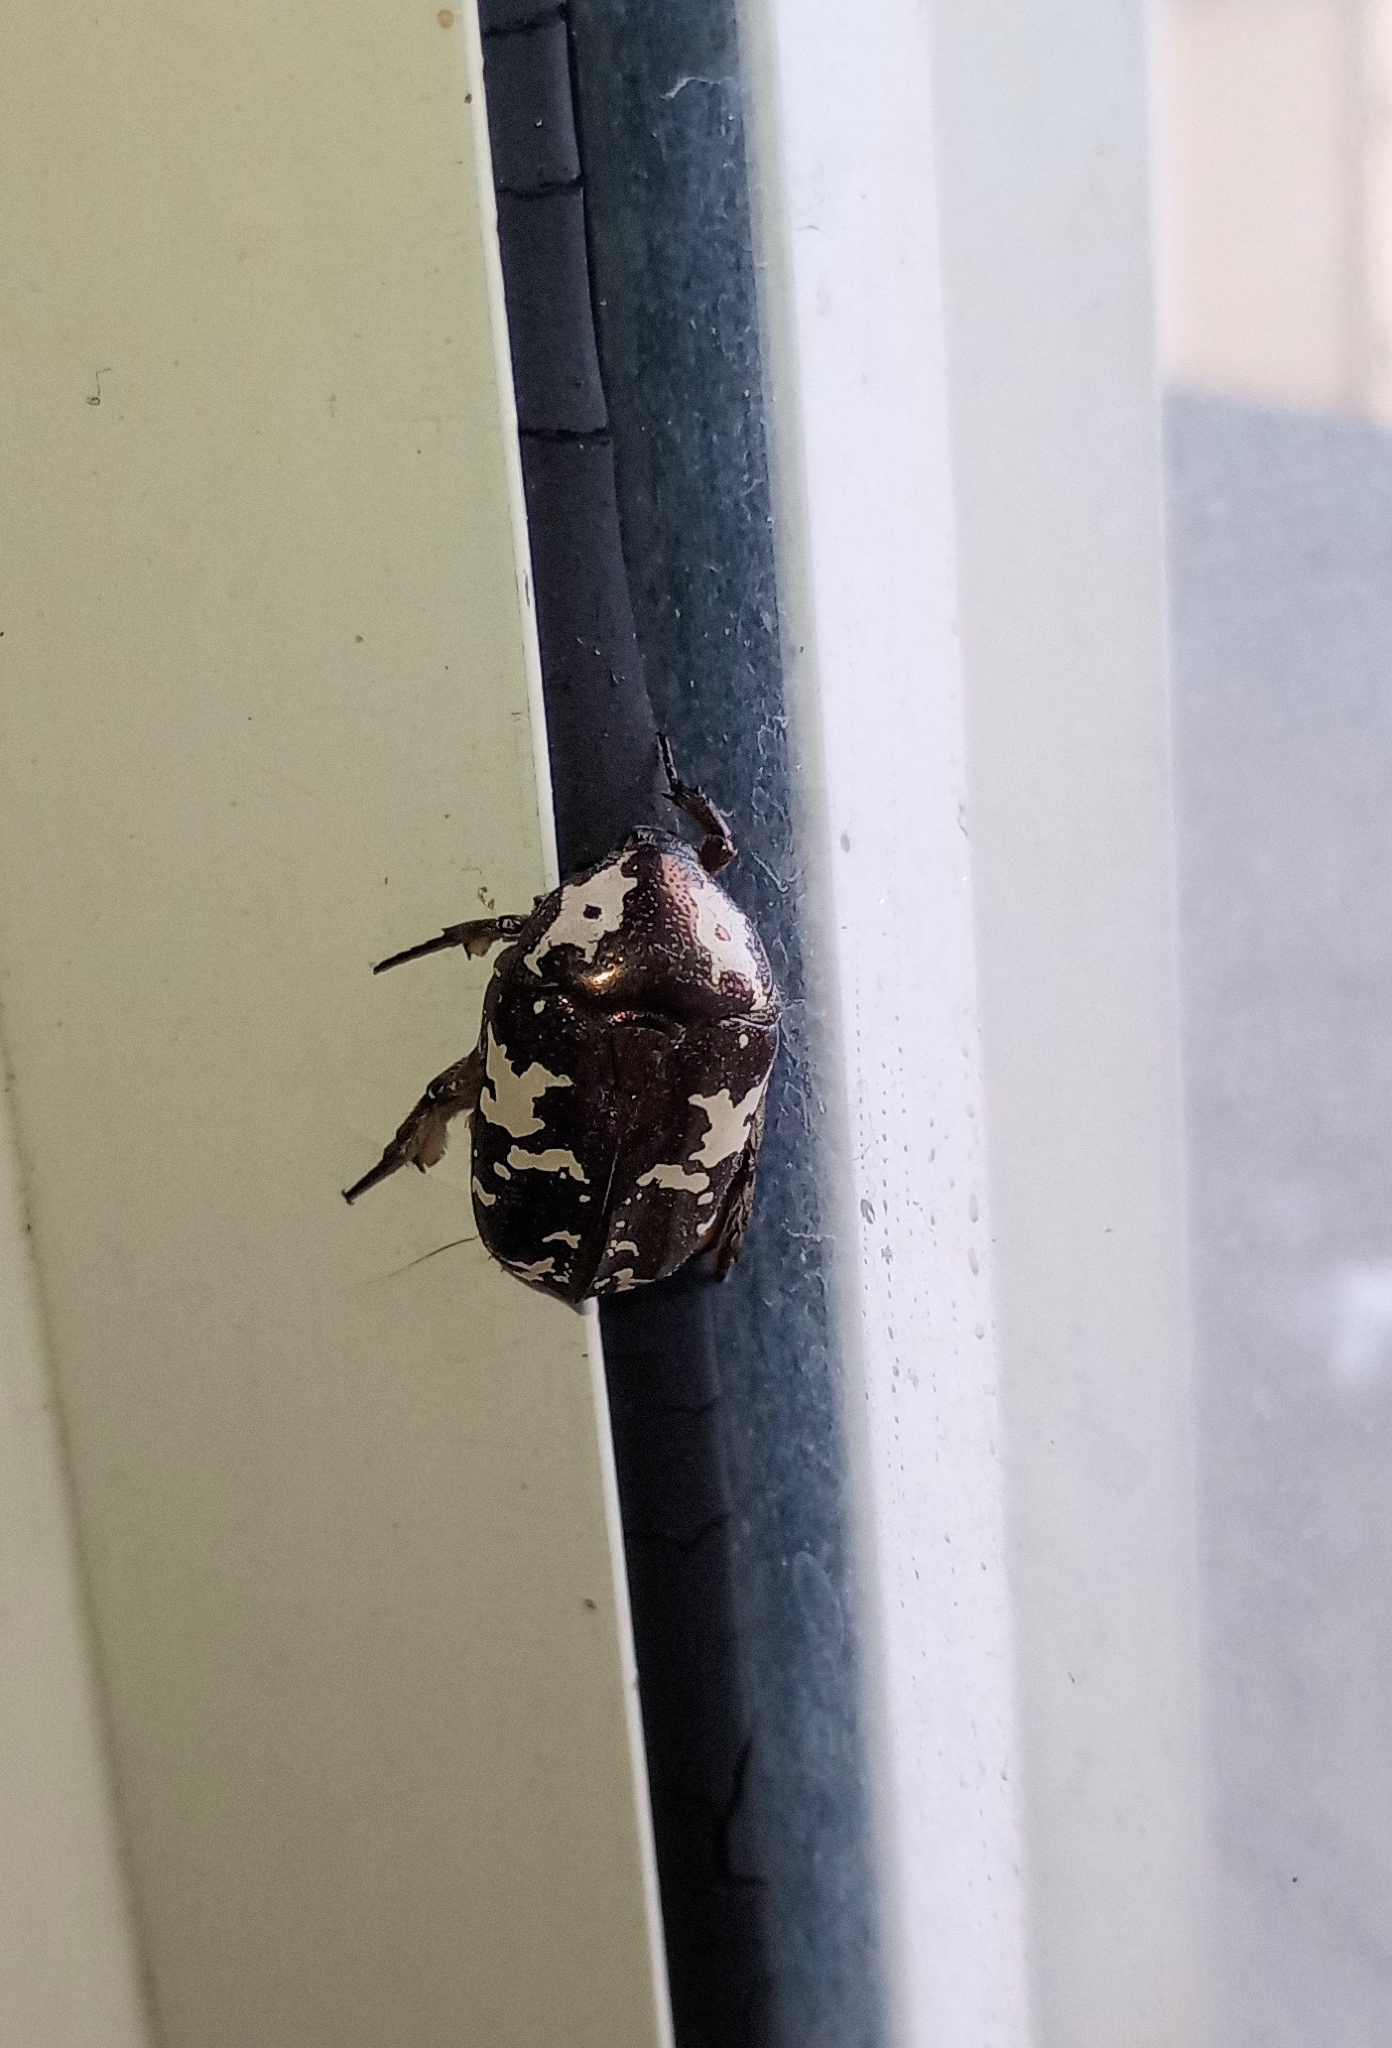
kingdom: Animalia
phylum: Arthropoda
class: Insecta
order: Coleoptera
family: Scarabaeidae
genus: Protaetia
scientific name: Protaetia aurichalcea
